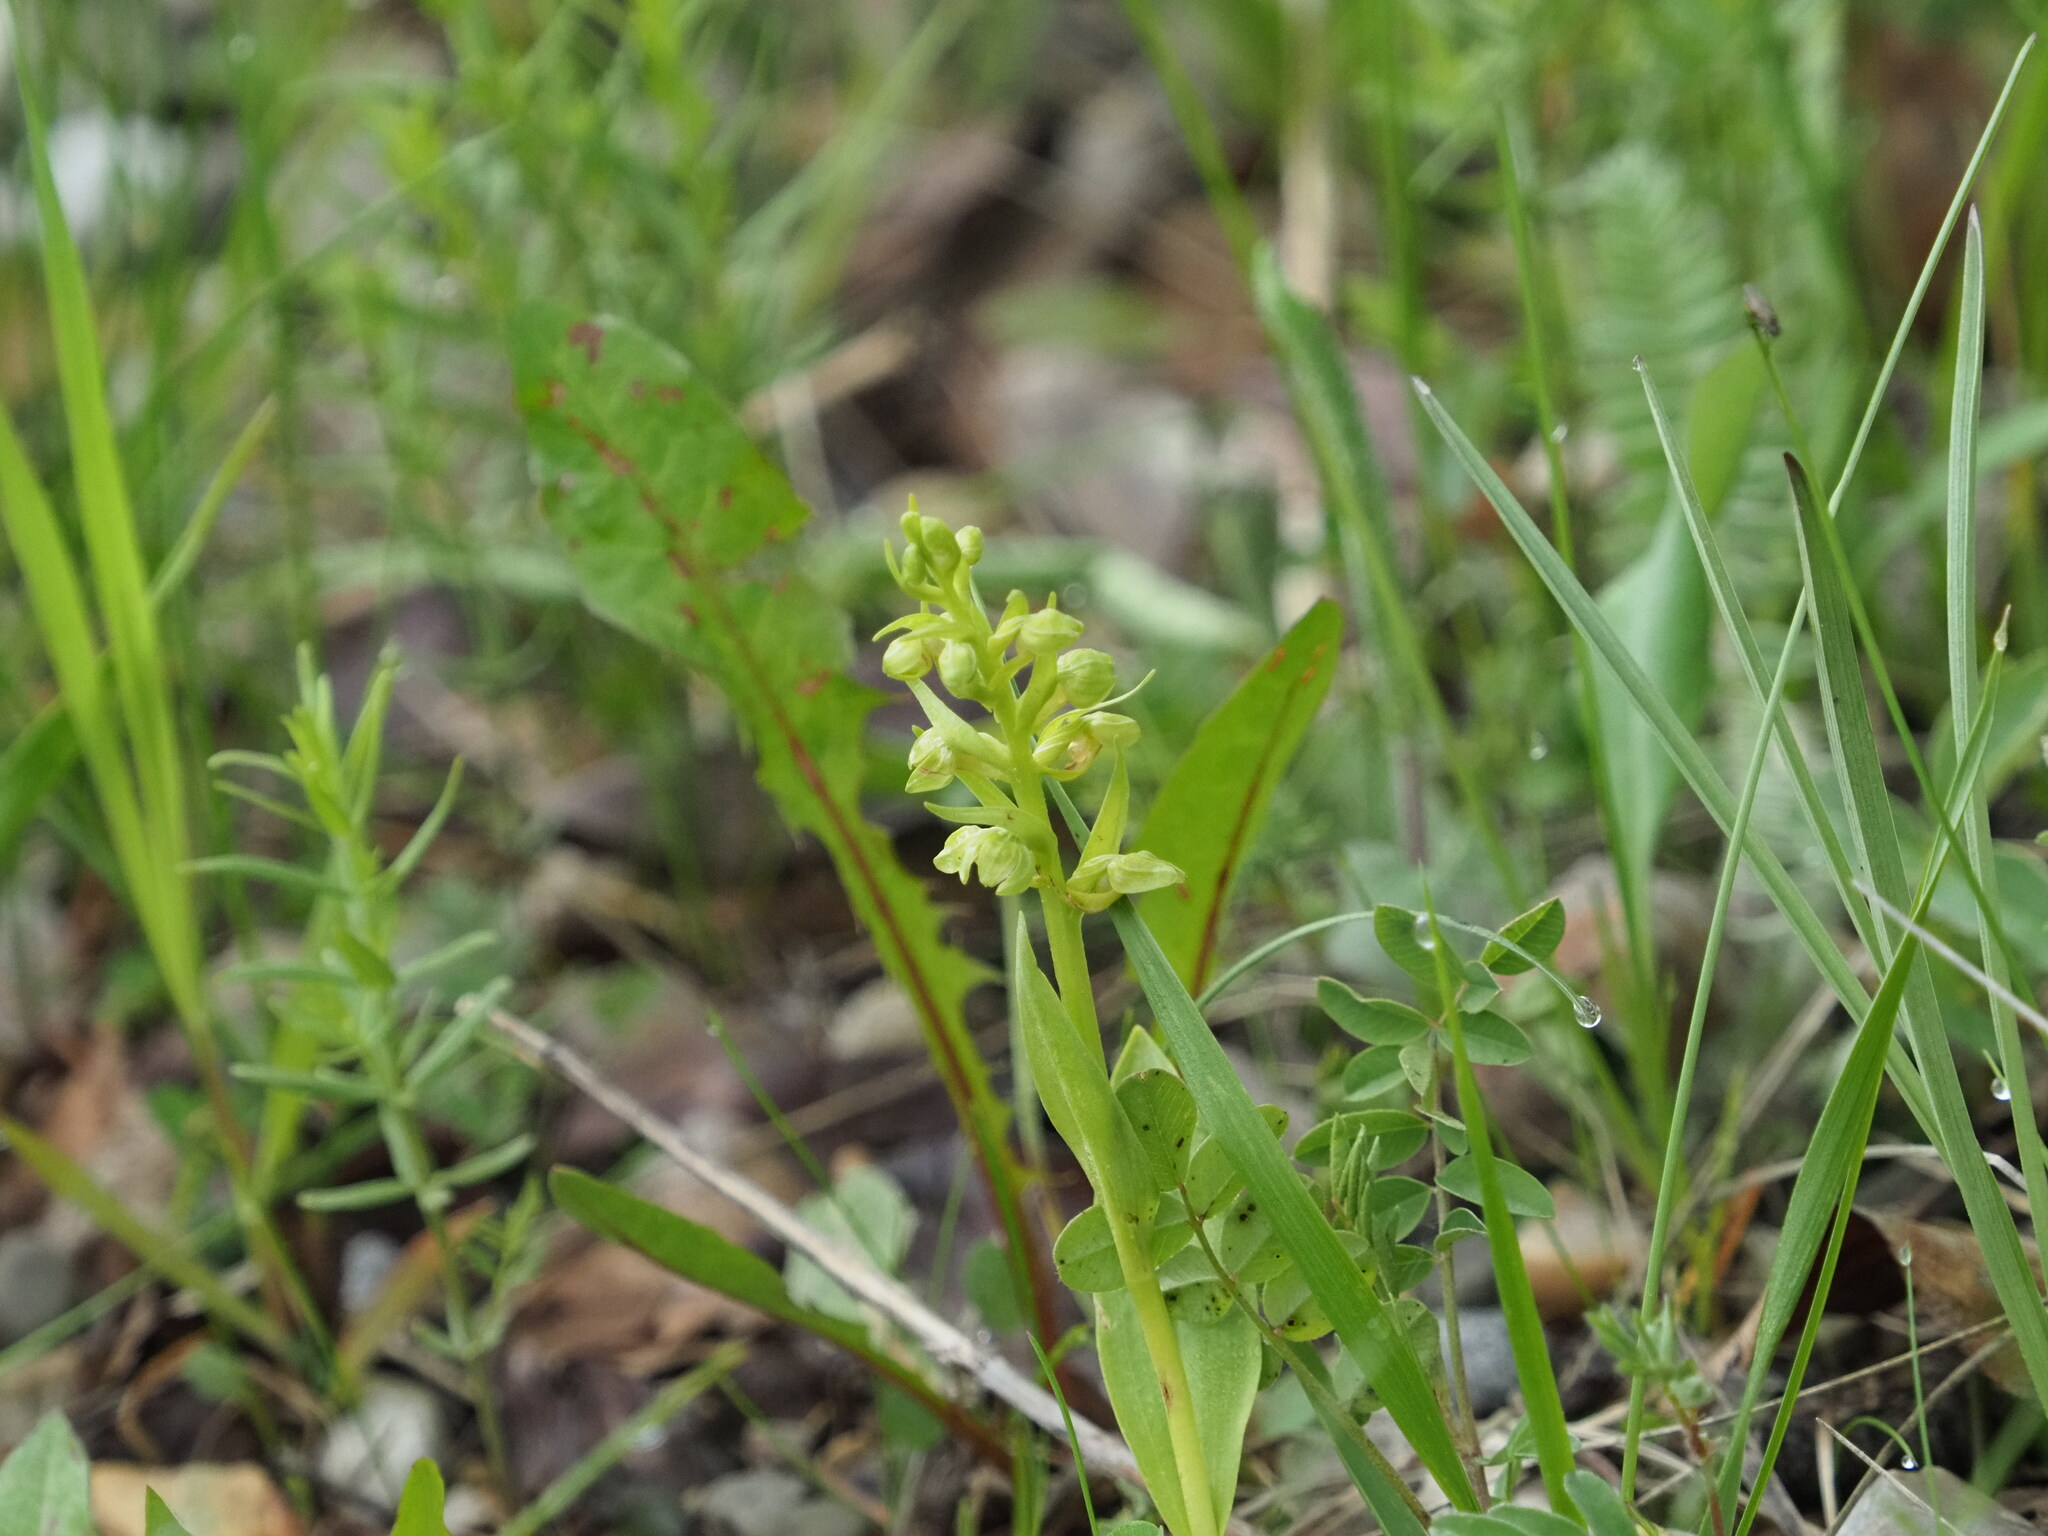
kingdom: Plantae
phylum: Tracheophyta
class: Liliopsida
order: Asparagales
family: Orchidaceae
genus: Dactylorhiza
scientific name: Dactylorhiza viridis
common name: Longbract frog orchid
